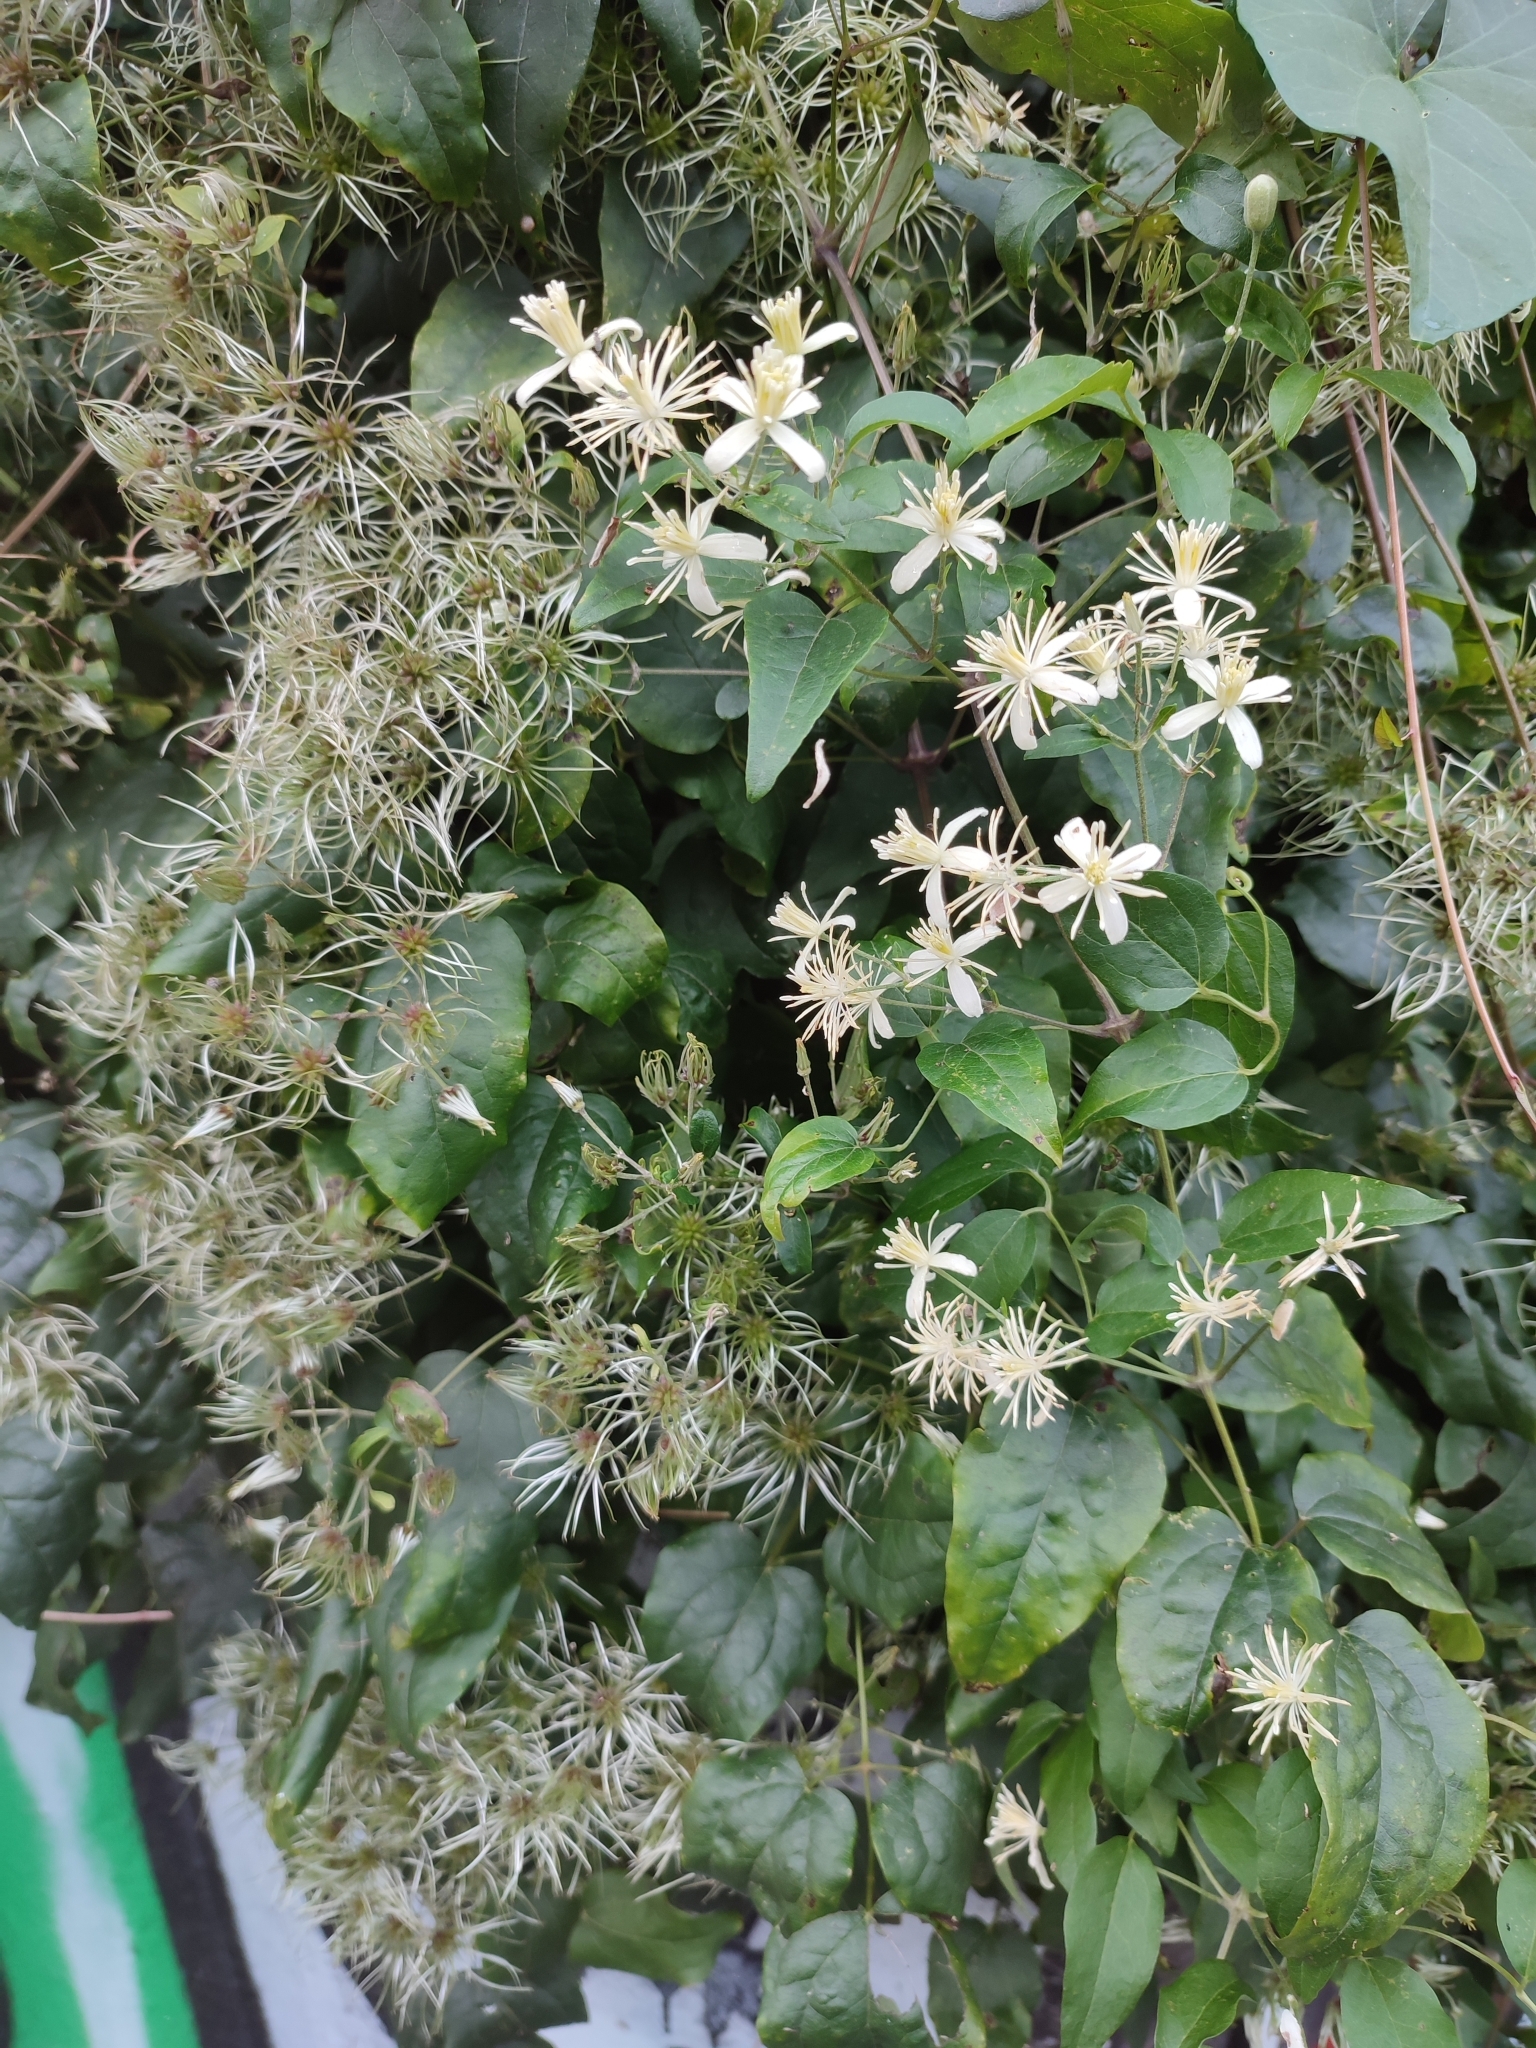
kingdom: Plantae
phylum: Tracheophyta
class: Magnoliopsida
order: Ranunculales
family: Ranunculaceae
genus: Clematis
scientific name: Clematis vitalba
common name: Evergreen clematis
